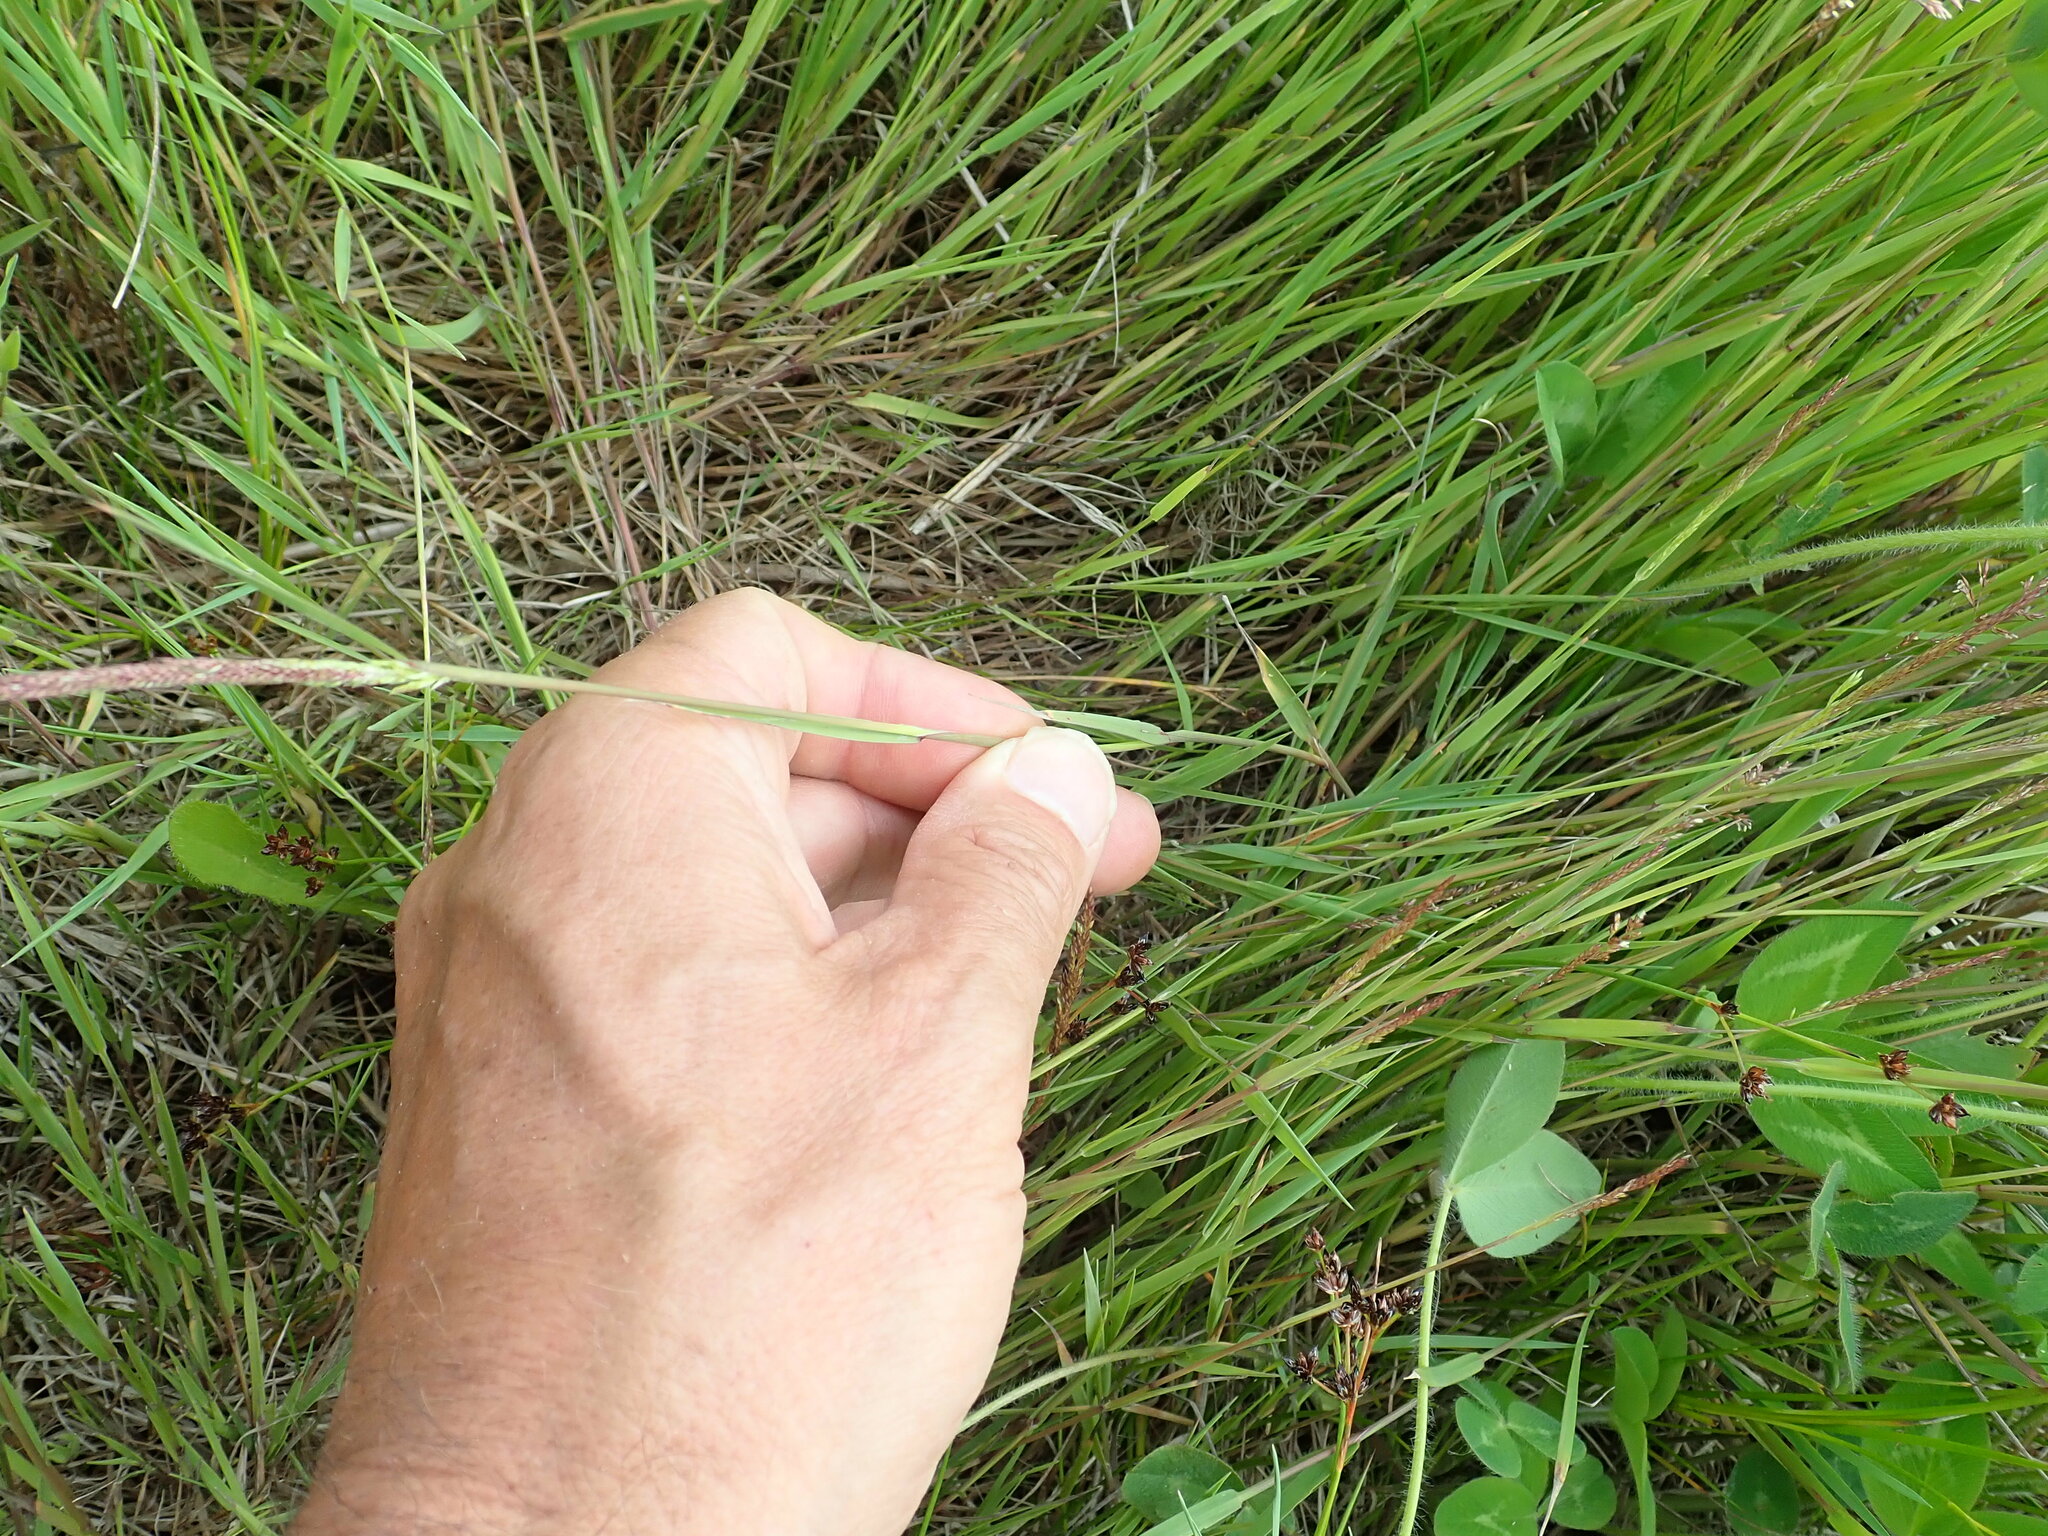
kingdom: Plantae
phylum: Tracheophyta
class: Liliopsida
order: Poales
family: Poaceae
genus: Agrostis
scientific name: Agrostis stolonifera
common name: Creeping bentgrass
